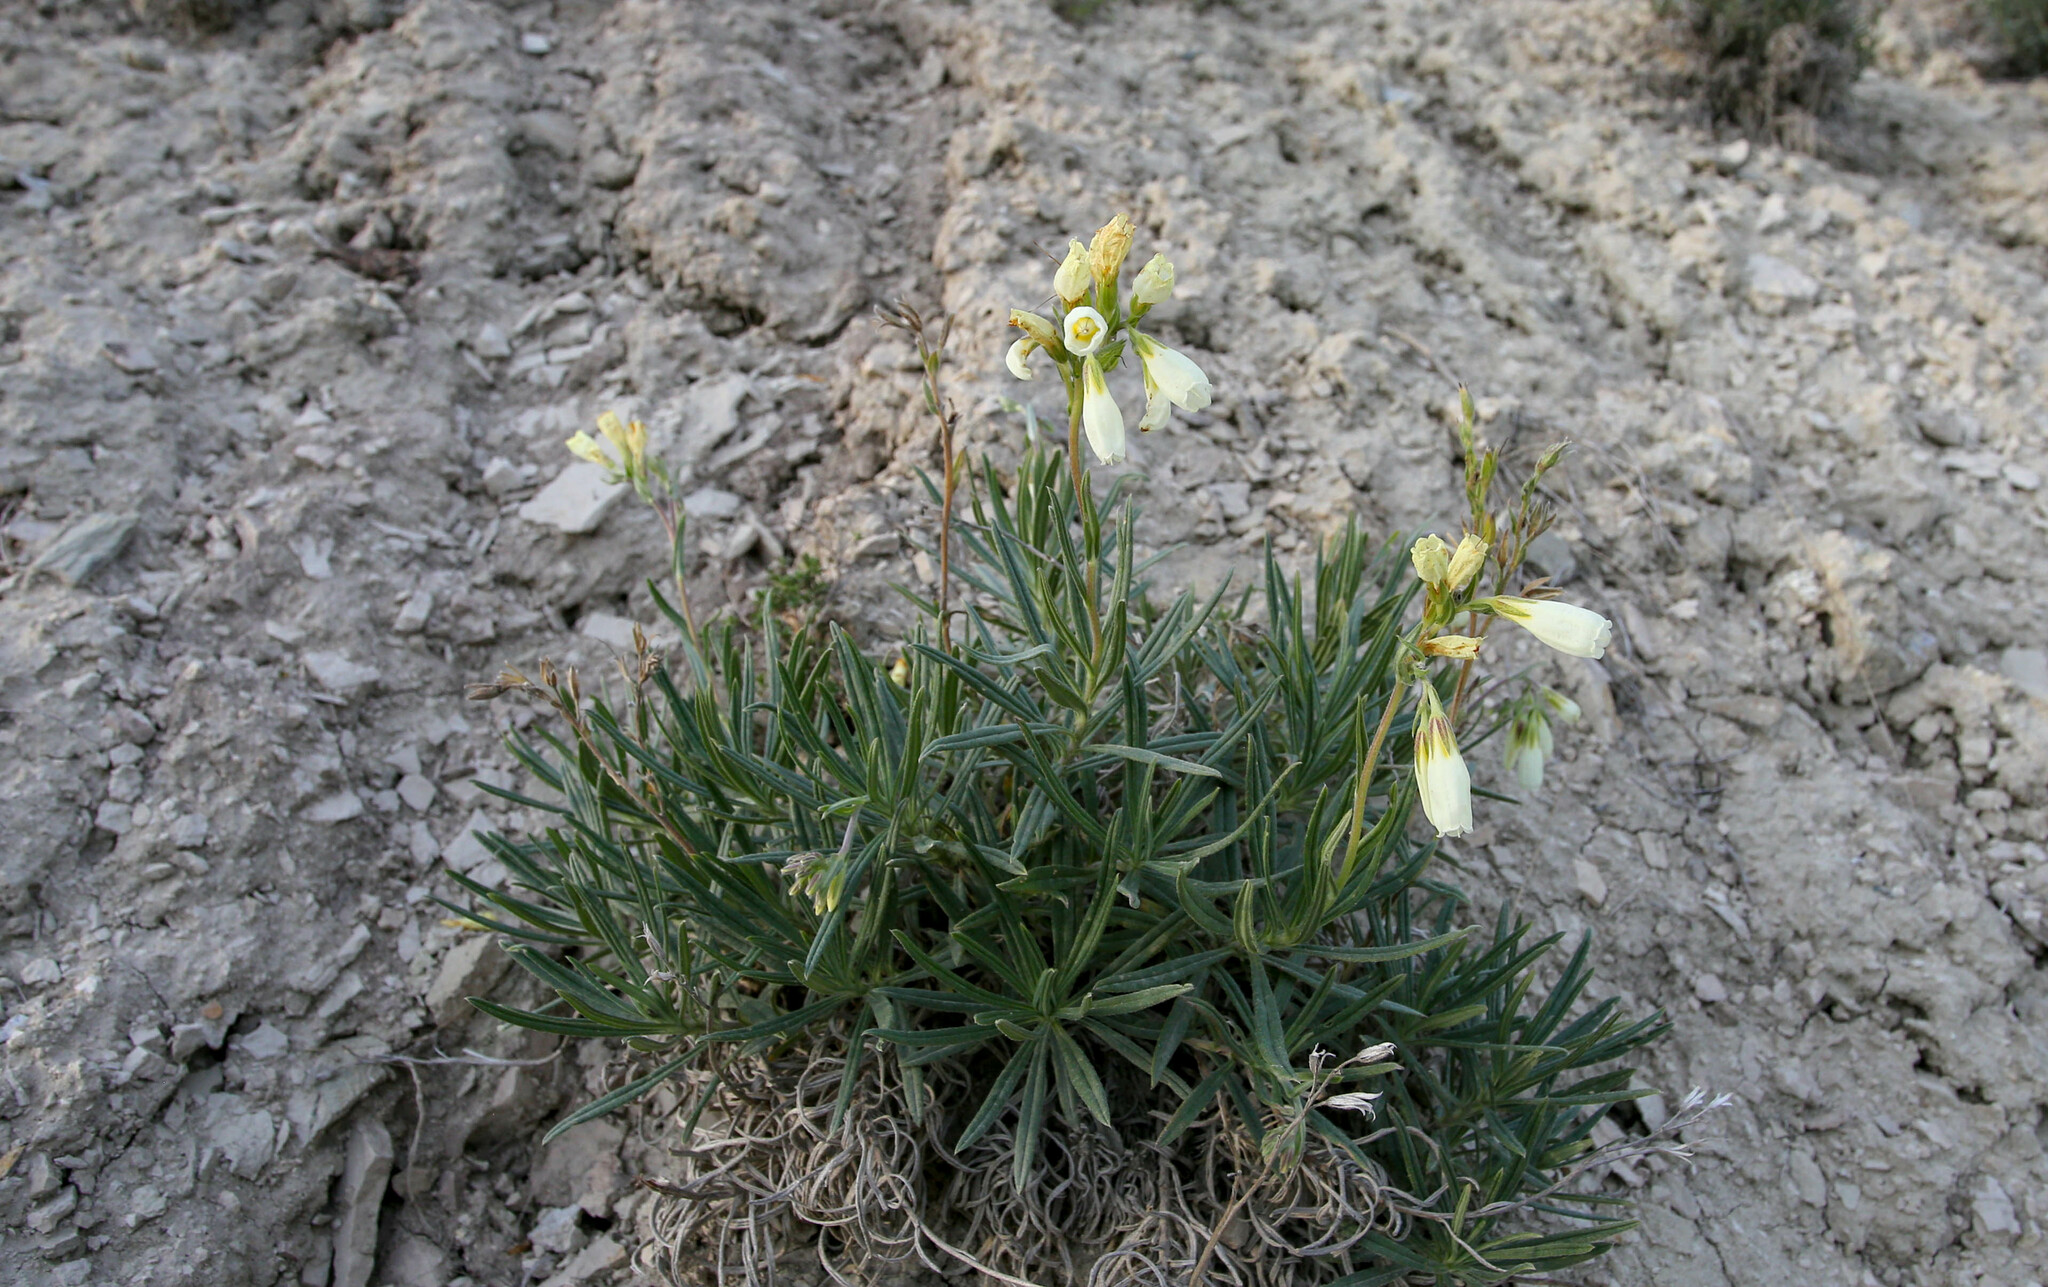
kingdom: Plantae
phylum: Tracheophyta
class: Magnoliopsida
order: Boraginales
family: Boraginaceae
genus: Onosma
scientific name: Onosma simplicissima
